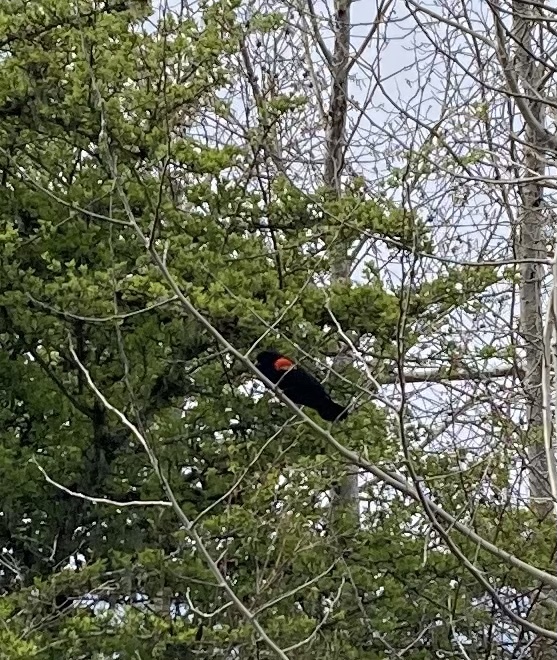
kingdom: Animalia
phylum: Chordata
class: Aves
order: Passeriformes
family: Icteridae
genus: Agelaius
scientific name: Agelaius phoeniceus
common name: Red-winged blackbird
